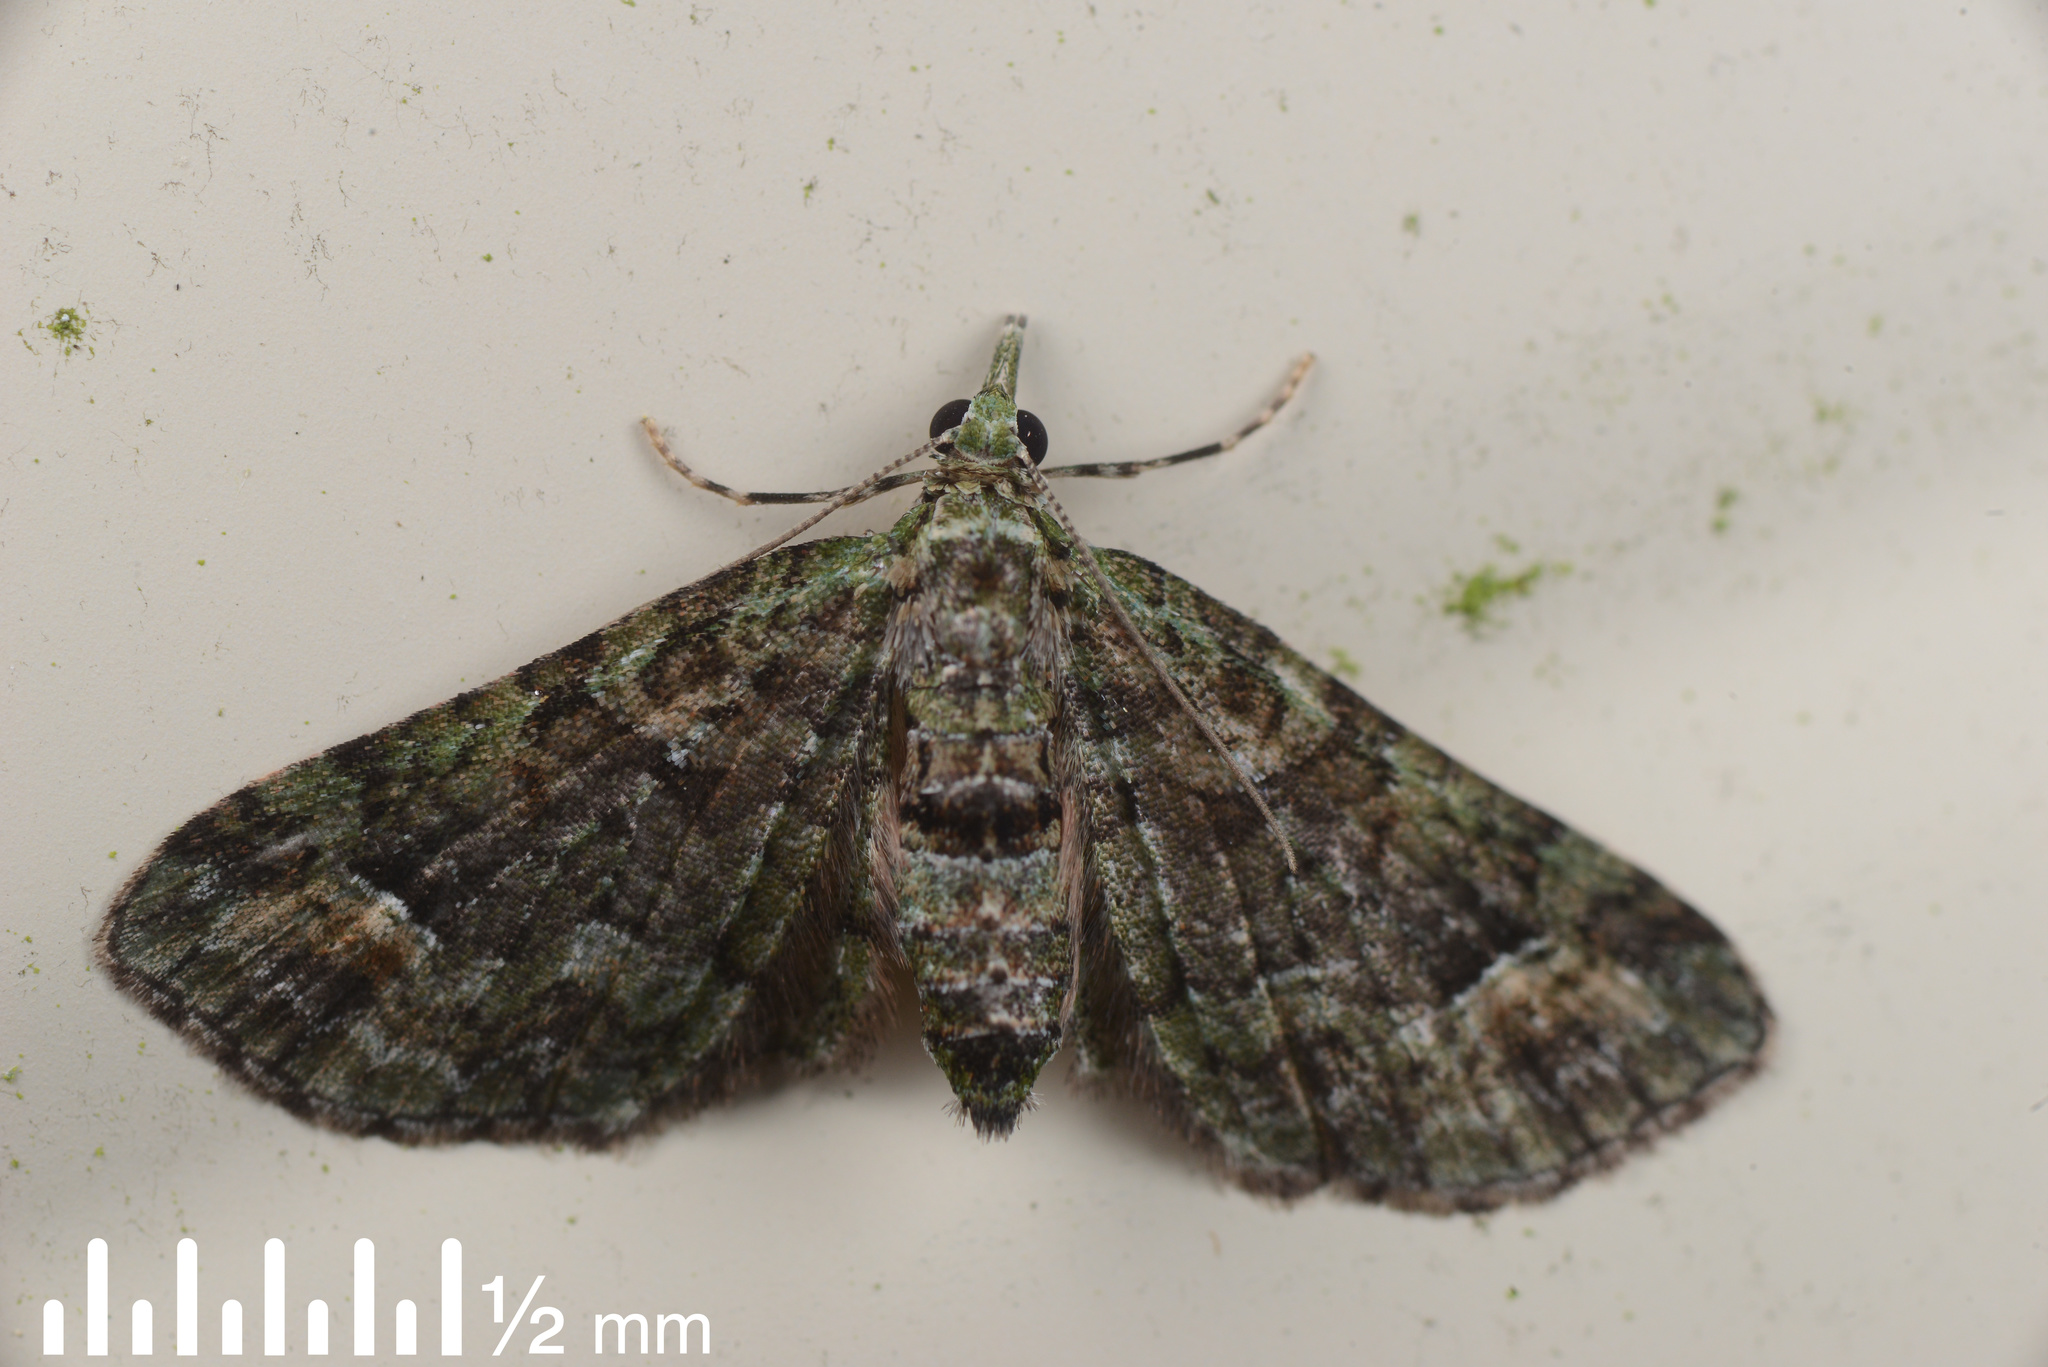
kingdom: Animalia
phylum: Arthropoda
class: Insecta
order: Lepidoptera
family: Geometridae
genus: Idaea
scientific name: Idaea mutanda
